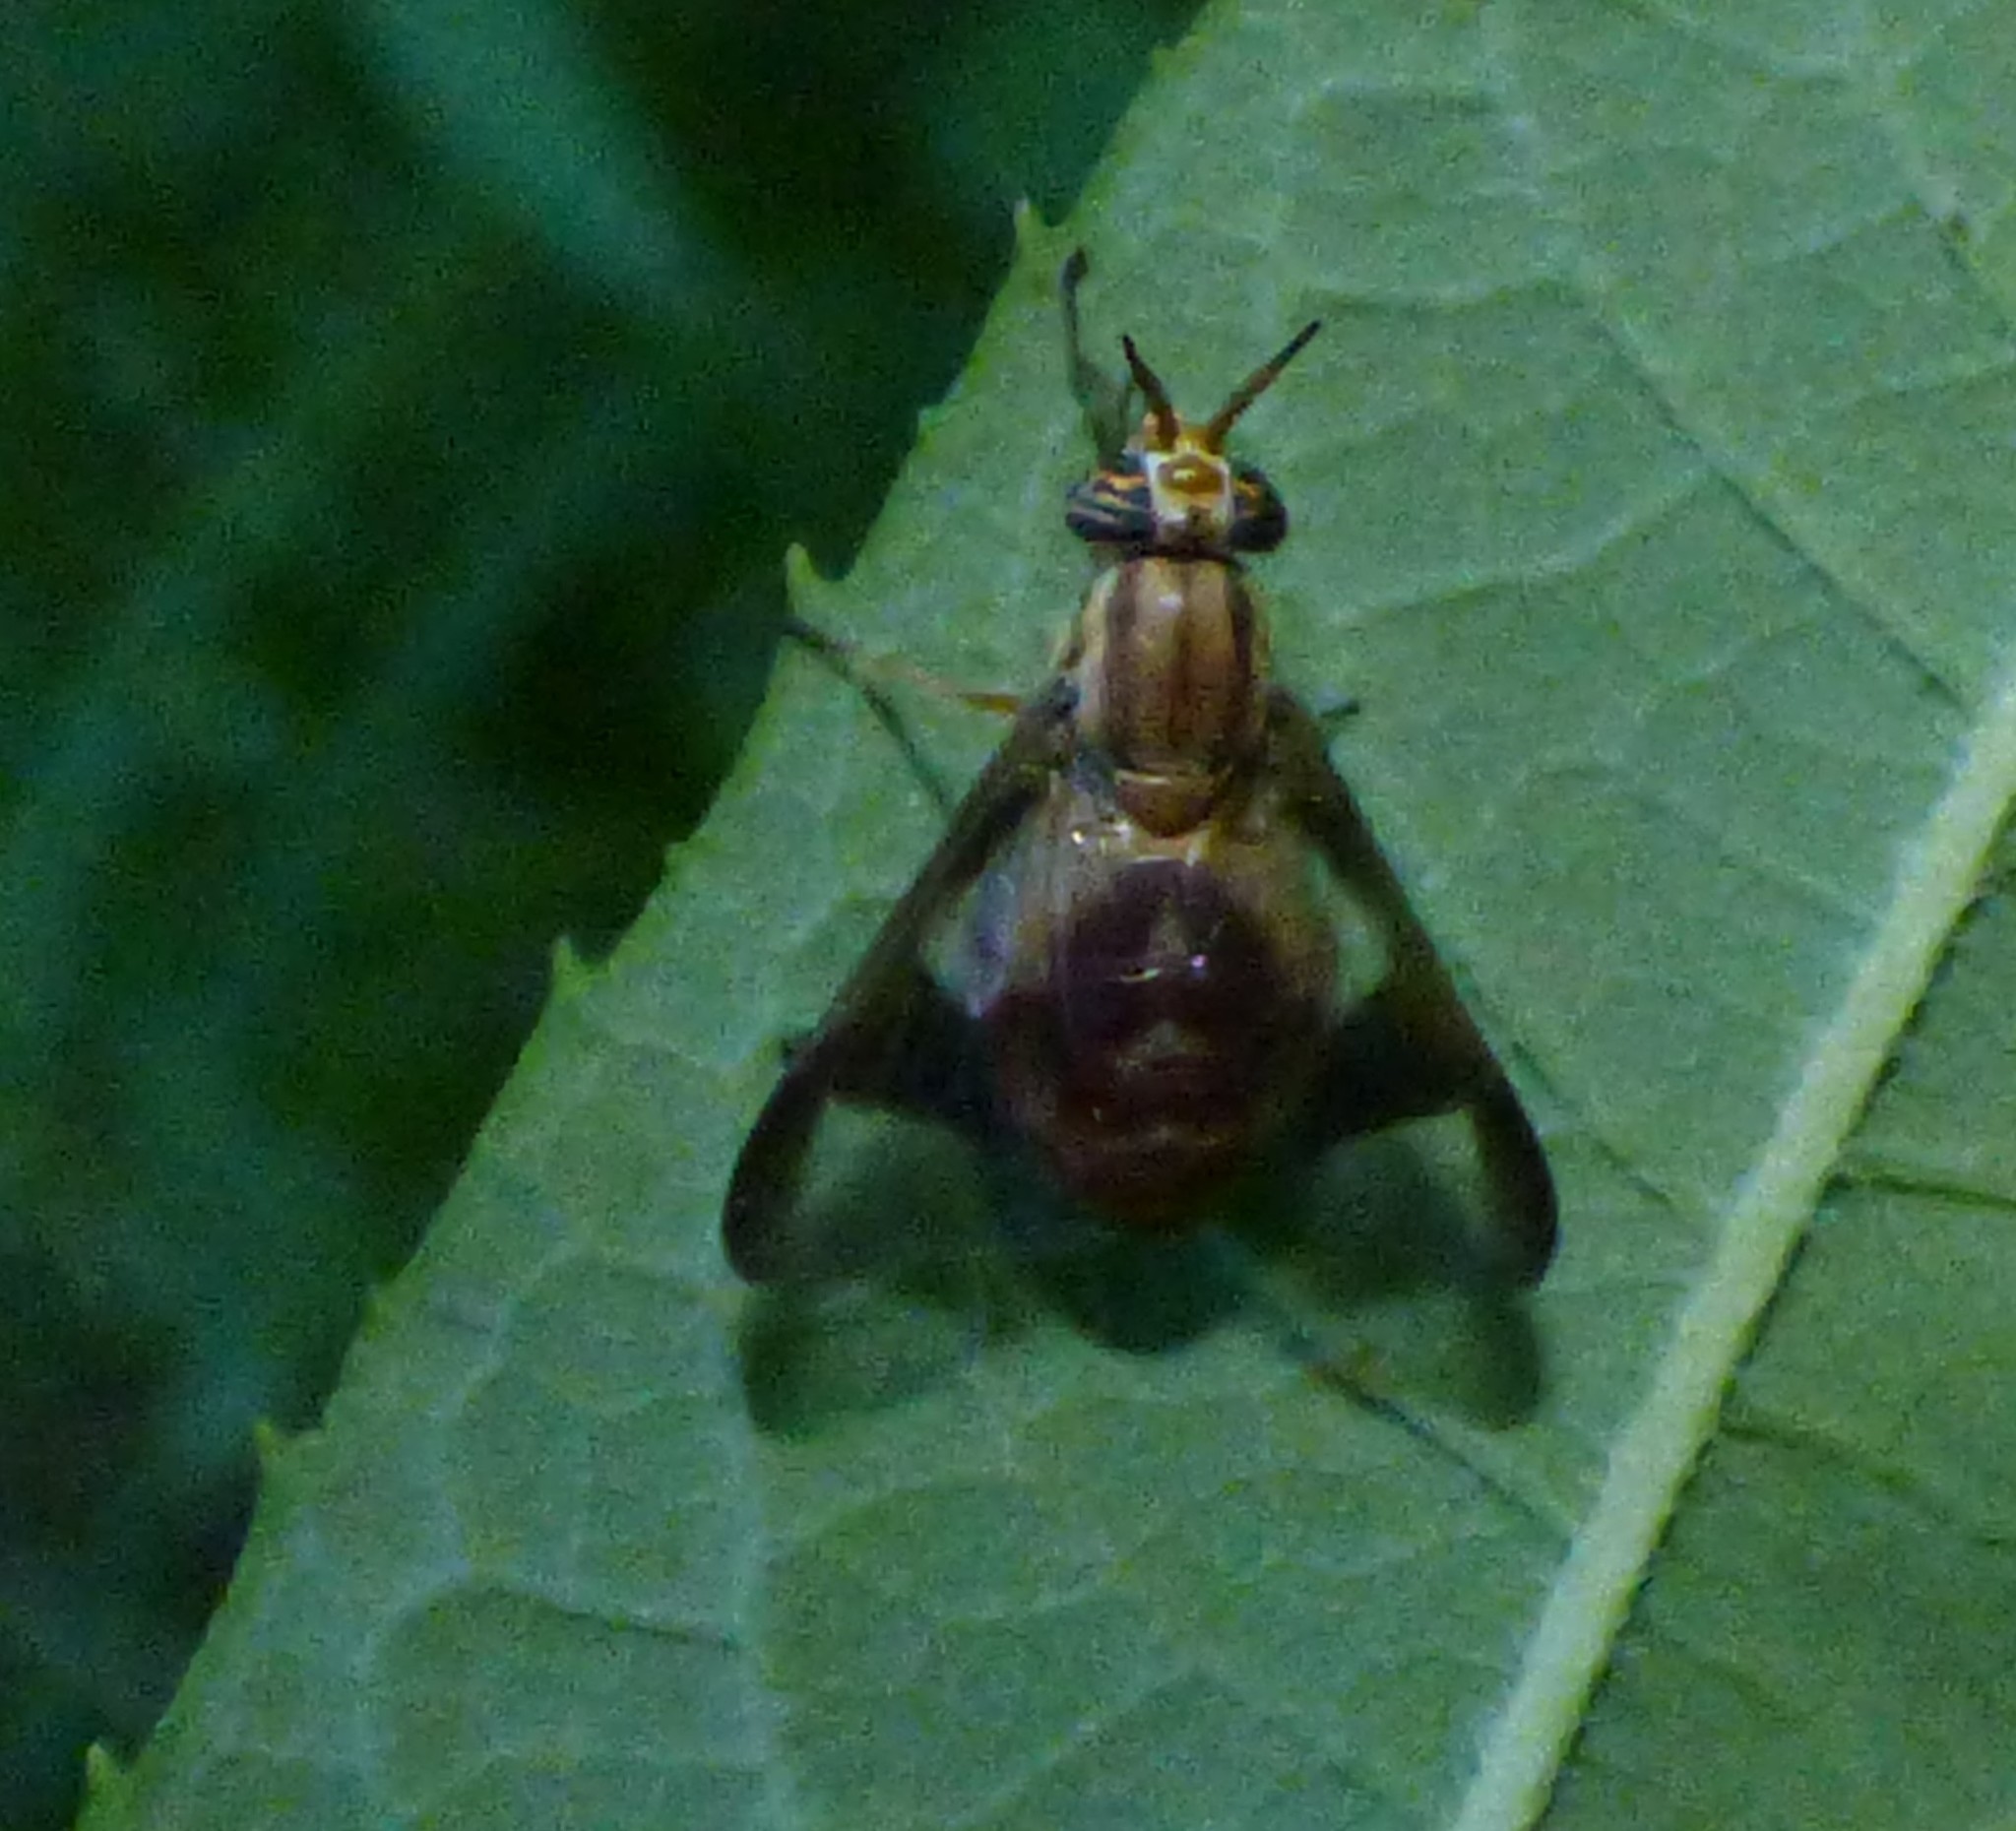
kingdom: Animalia
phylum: Arthropoda
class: Insecta
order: Diptera
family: Tabanidae
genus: Chrysops
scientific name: Chrysops vittatus
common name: Striped deer fly
